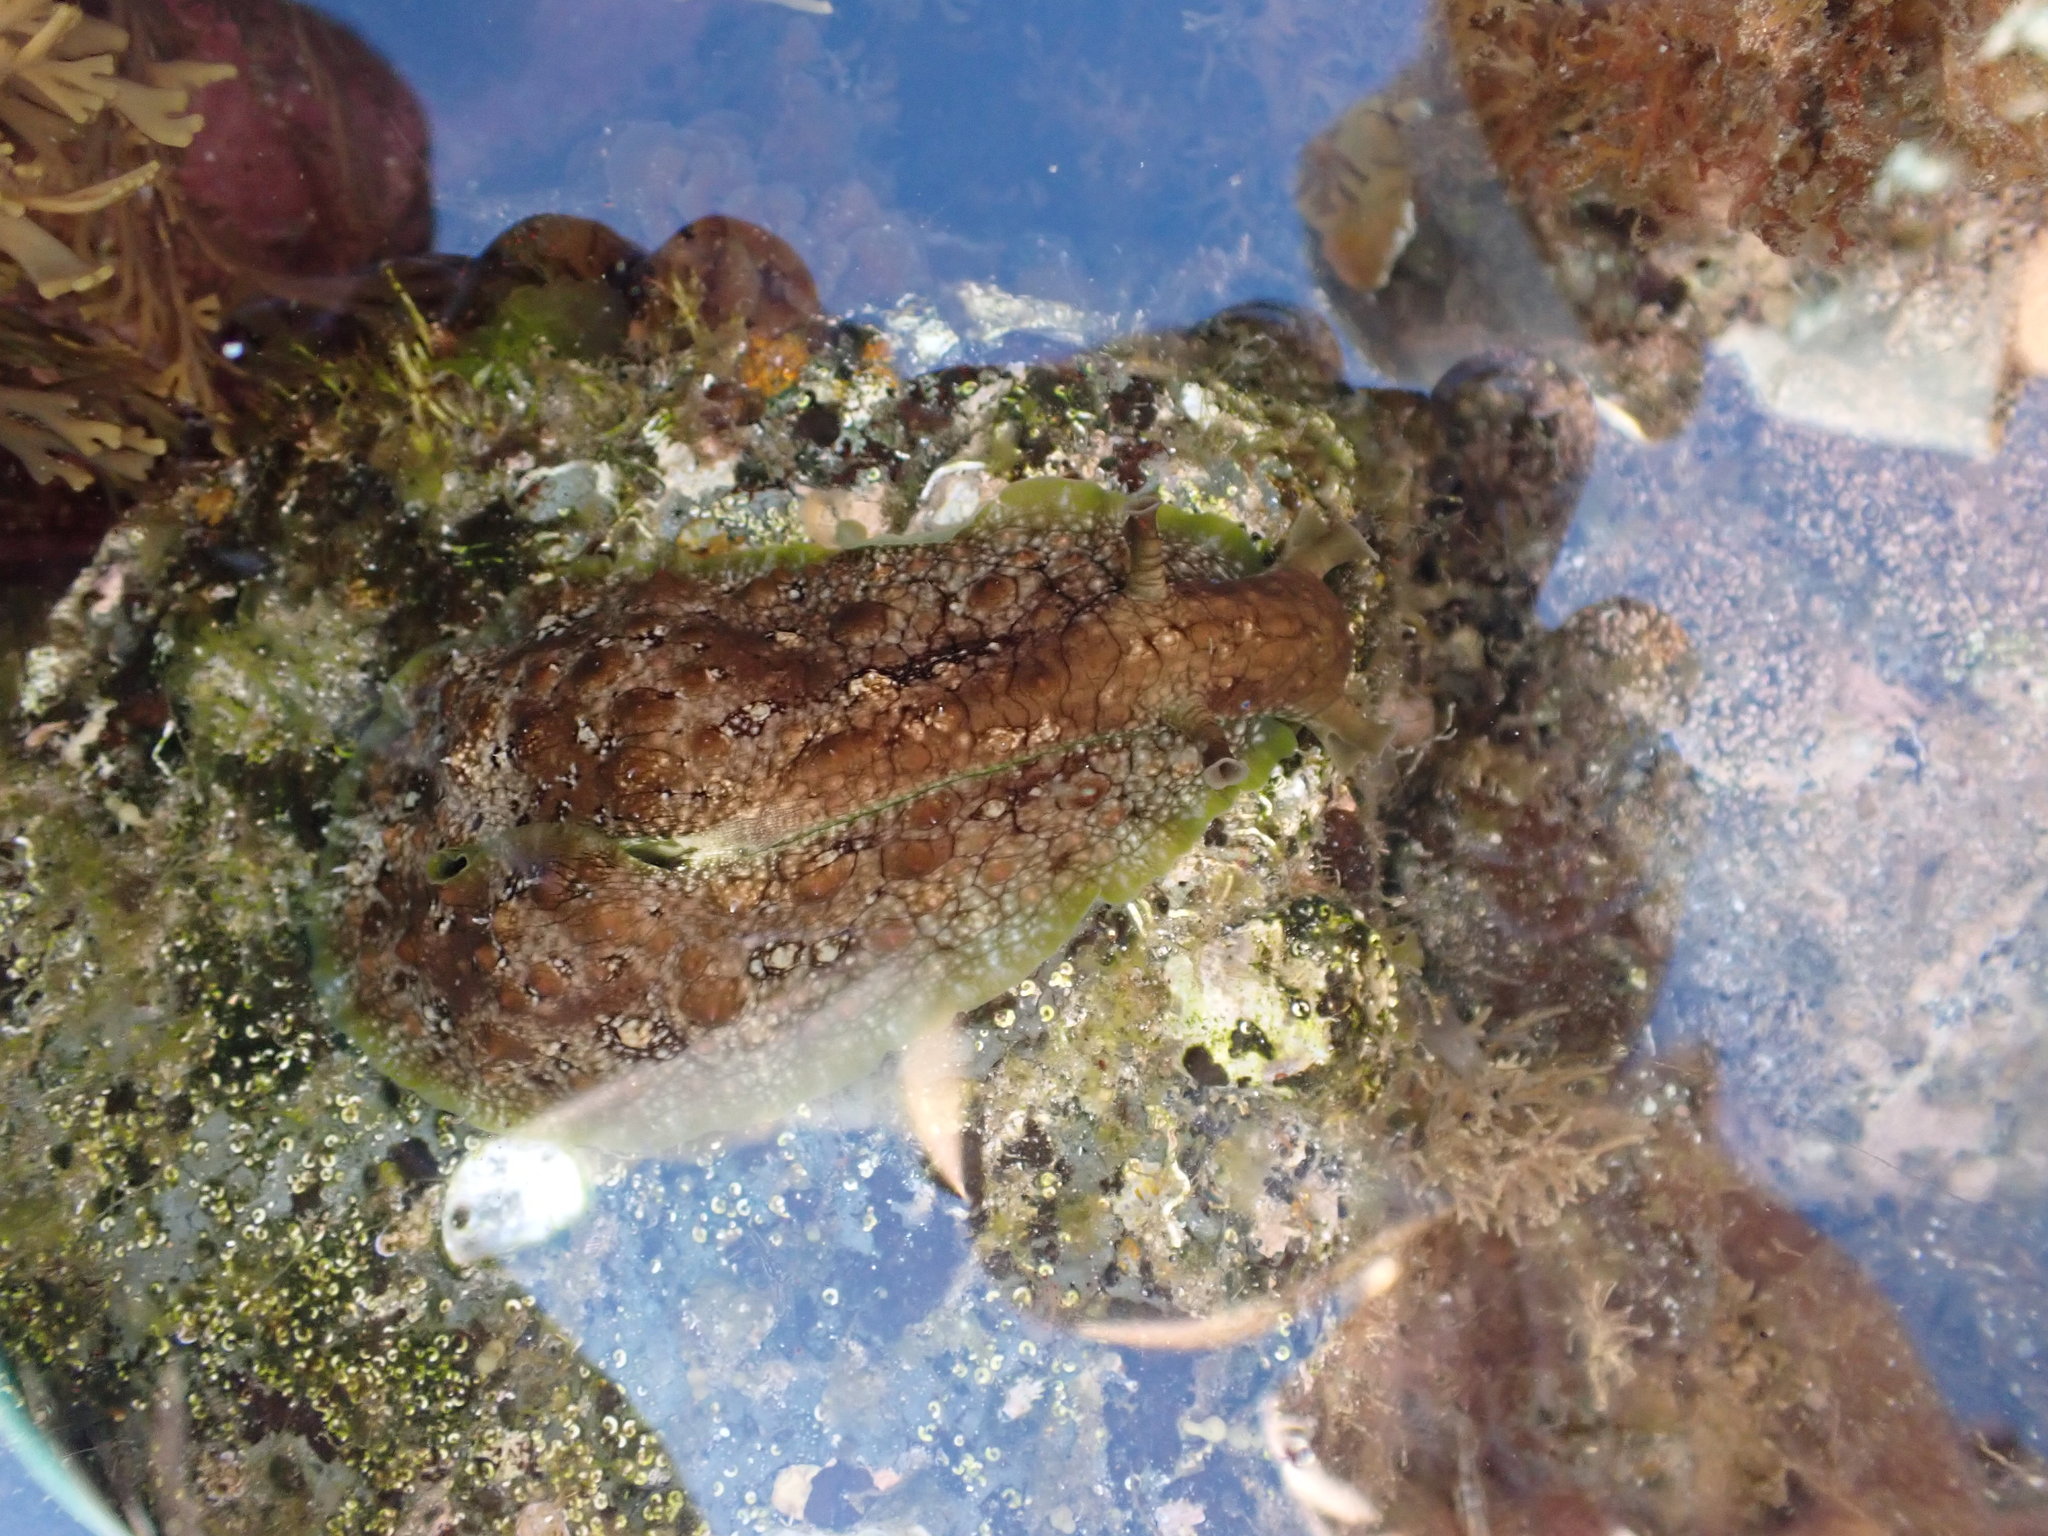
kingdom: Animalia
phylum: Mollusca
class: Gastropoda
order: Aplysiida
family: Aplysiidae
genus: Dolabrifera
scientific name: Dolabrifera brazieri
